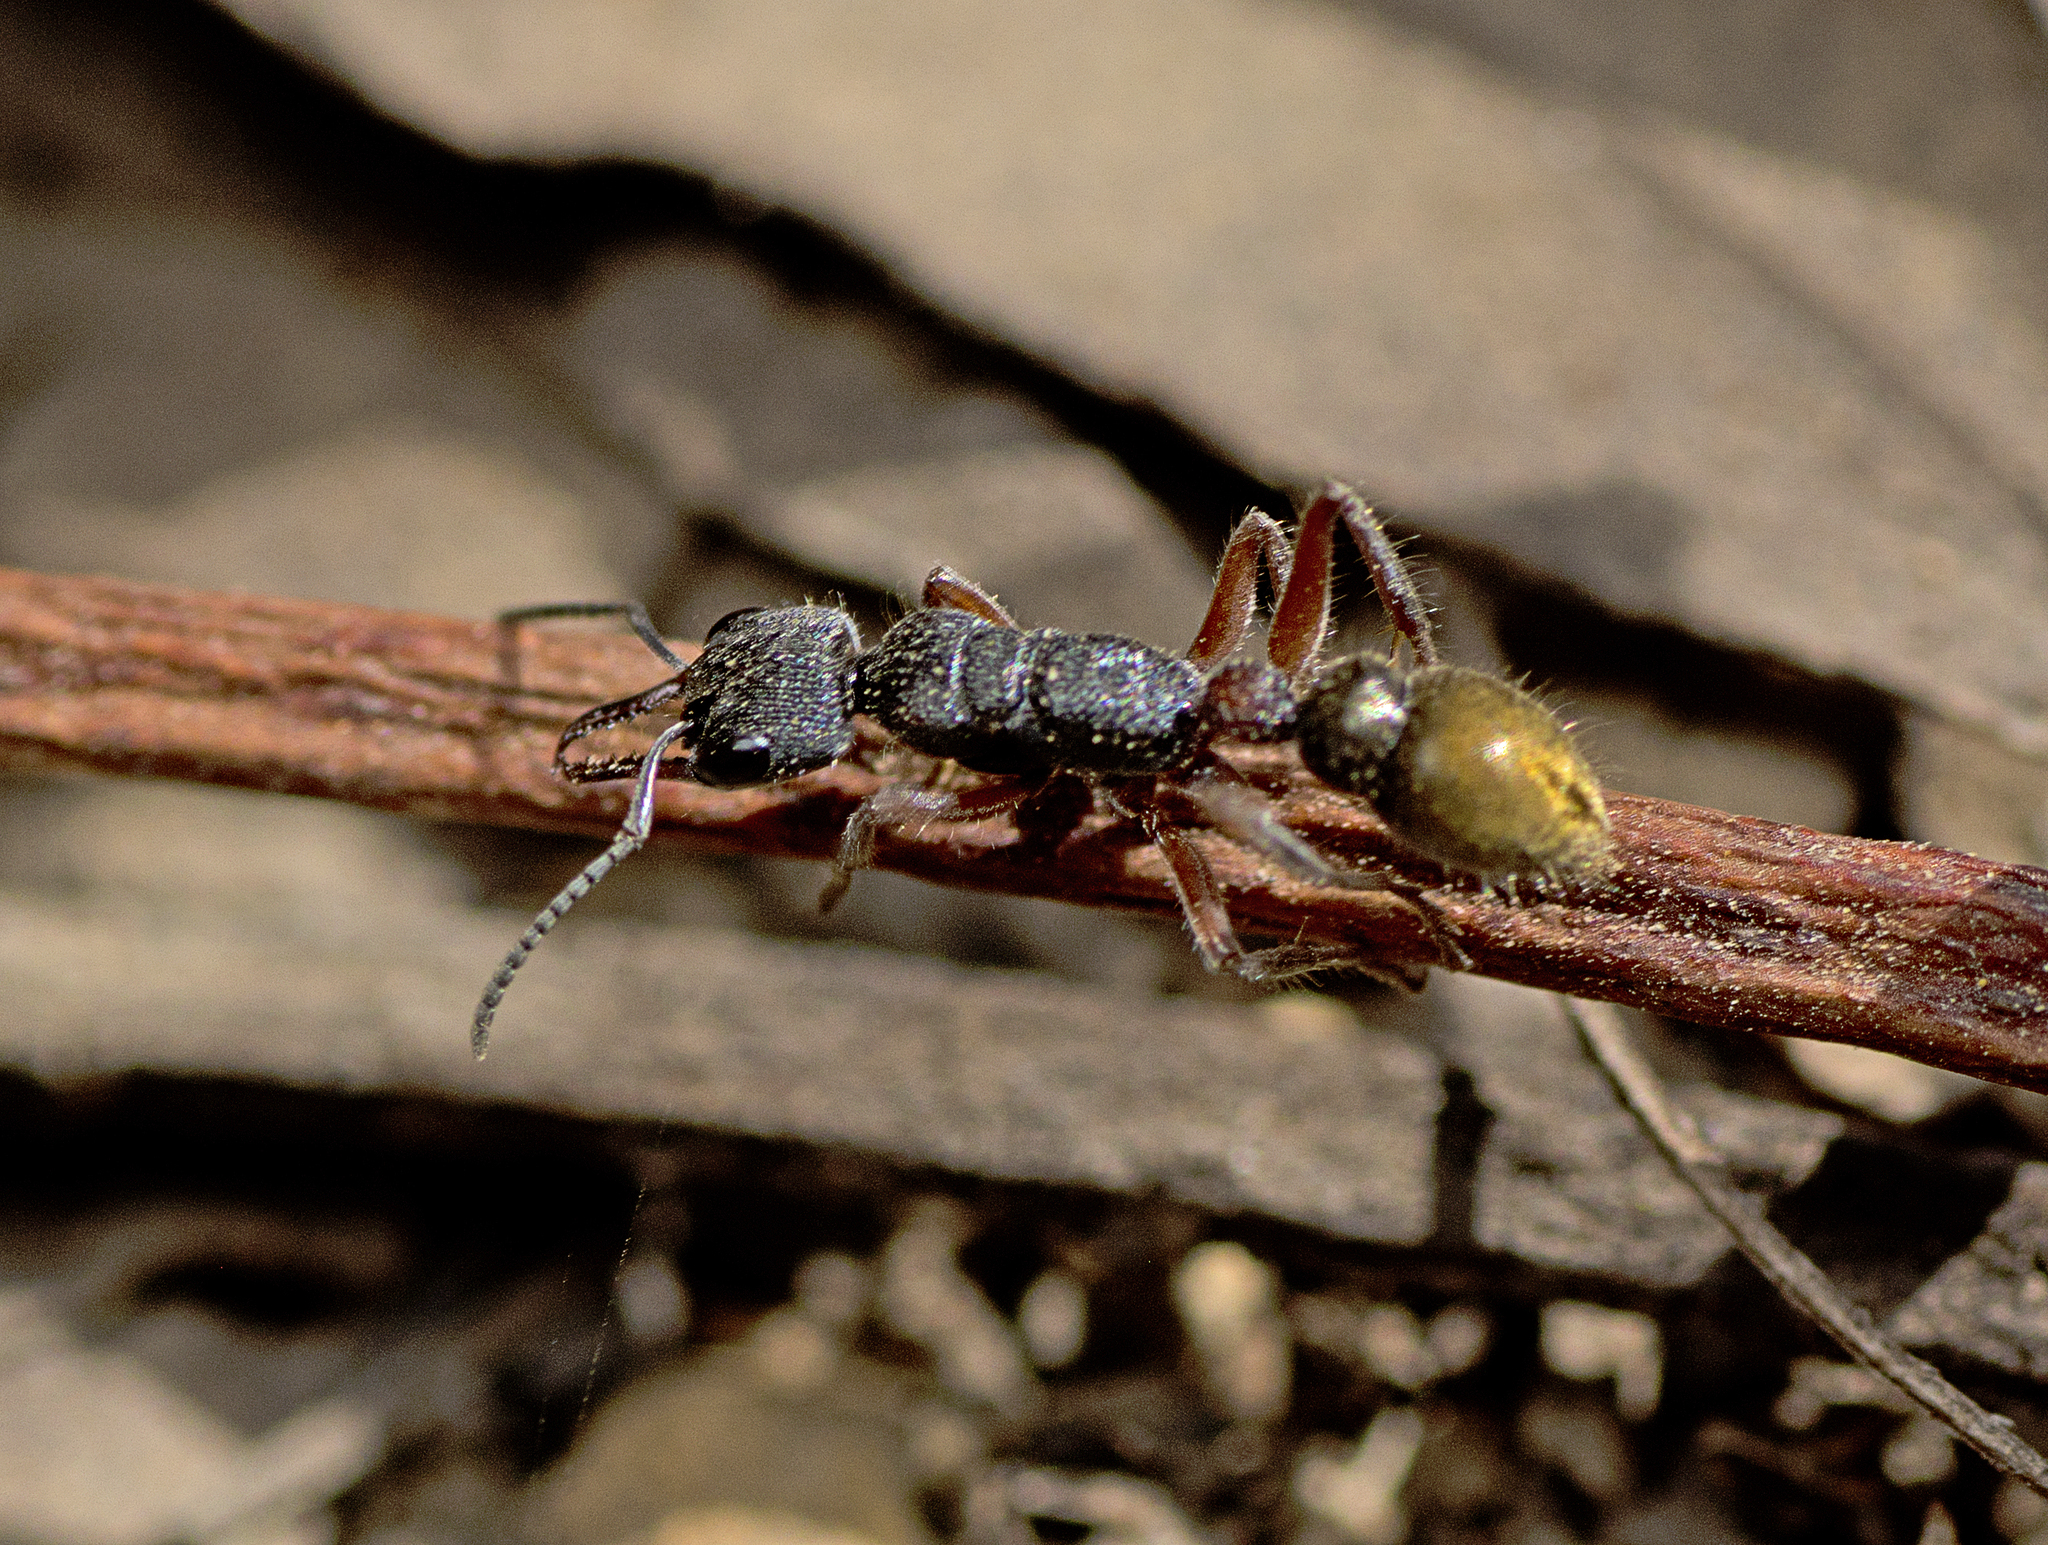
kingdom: Animalia
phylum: Arthropoda
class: Insecta
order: Hymenoptera
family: Formicidae
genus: Myrmecia
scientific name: Myrmecia chrysogaster
